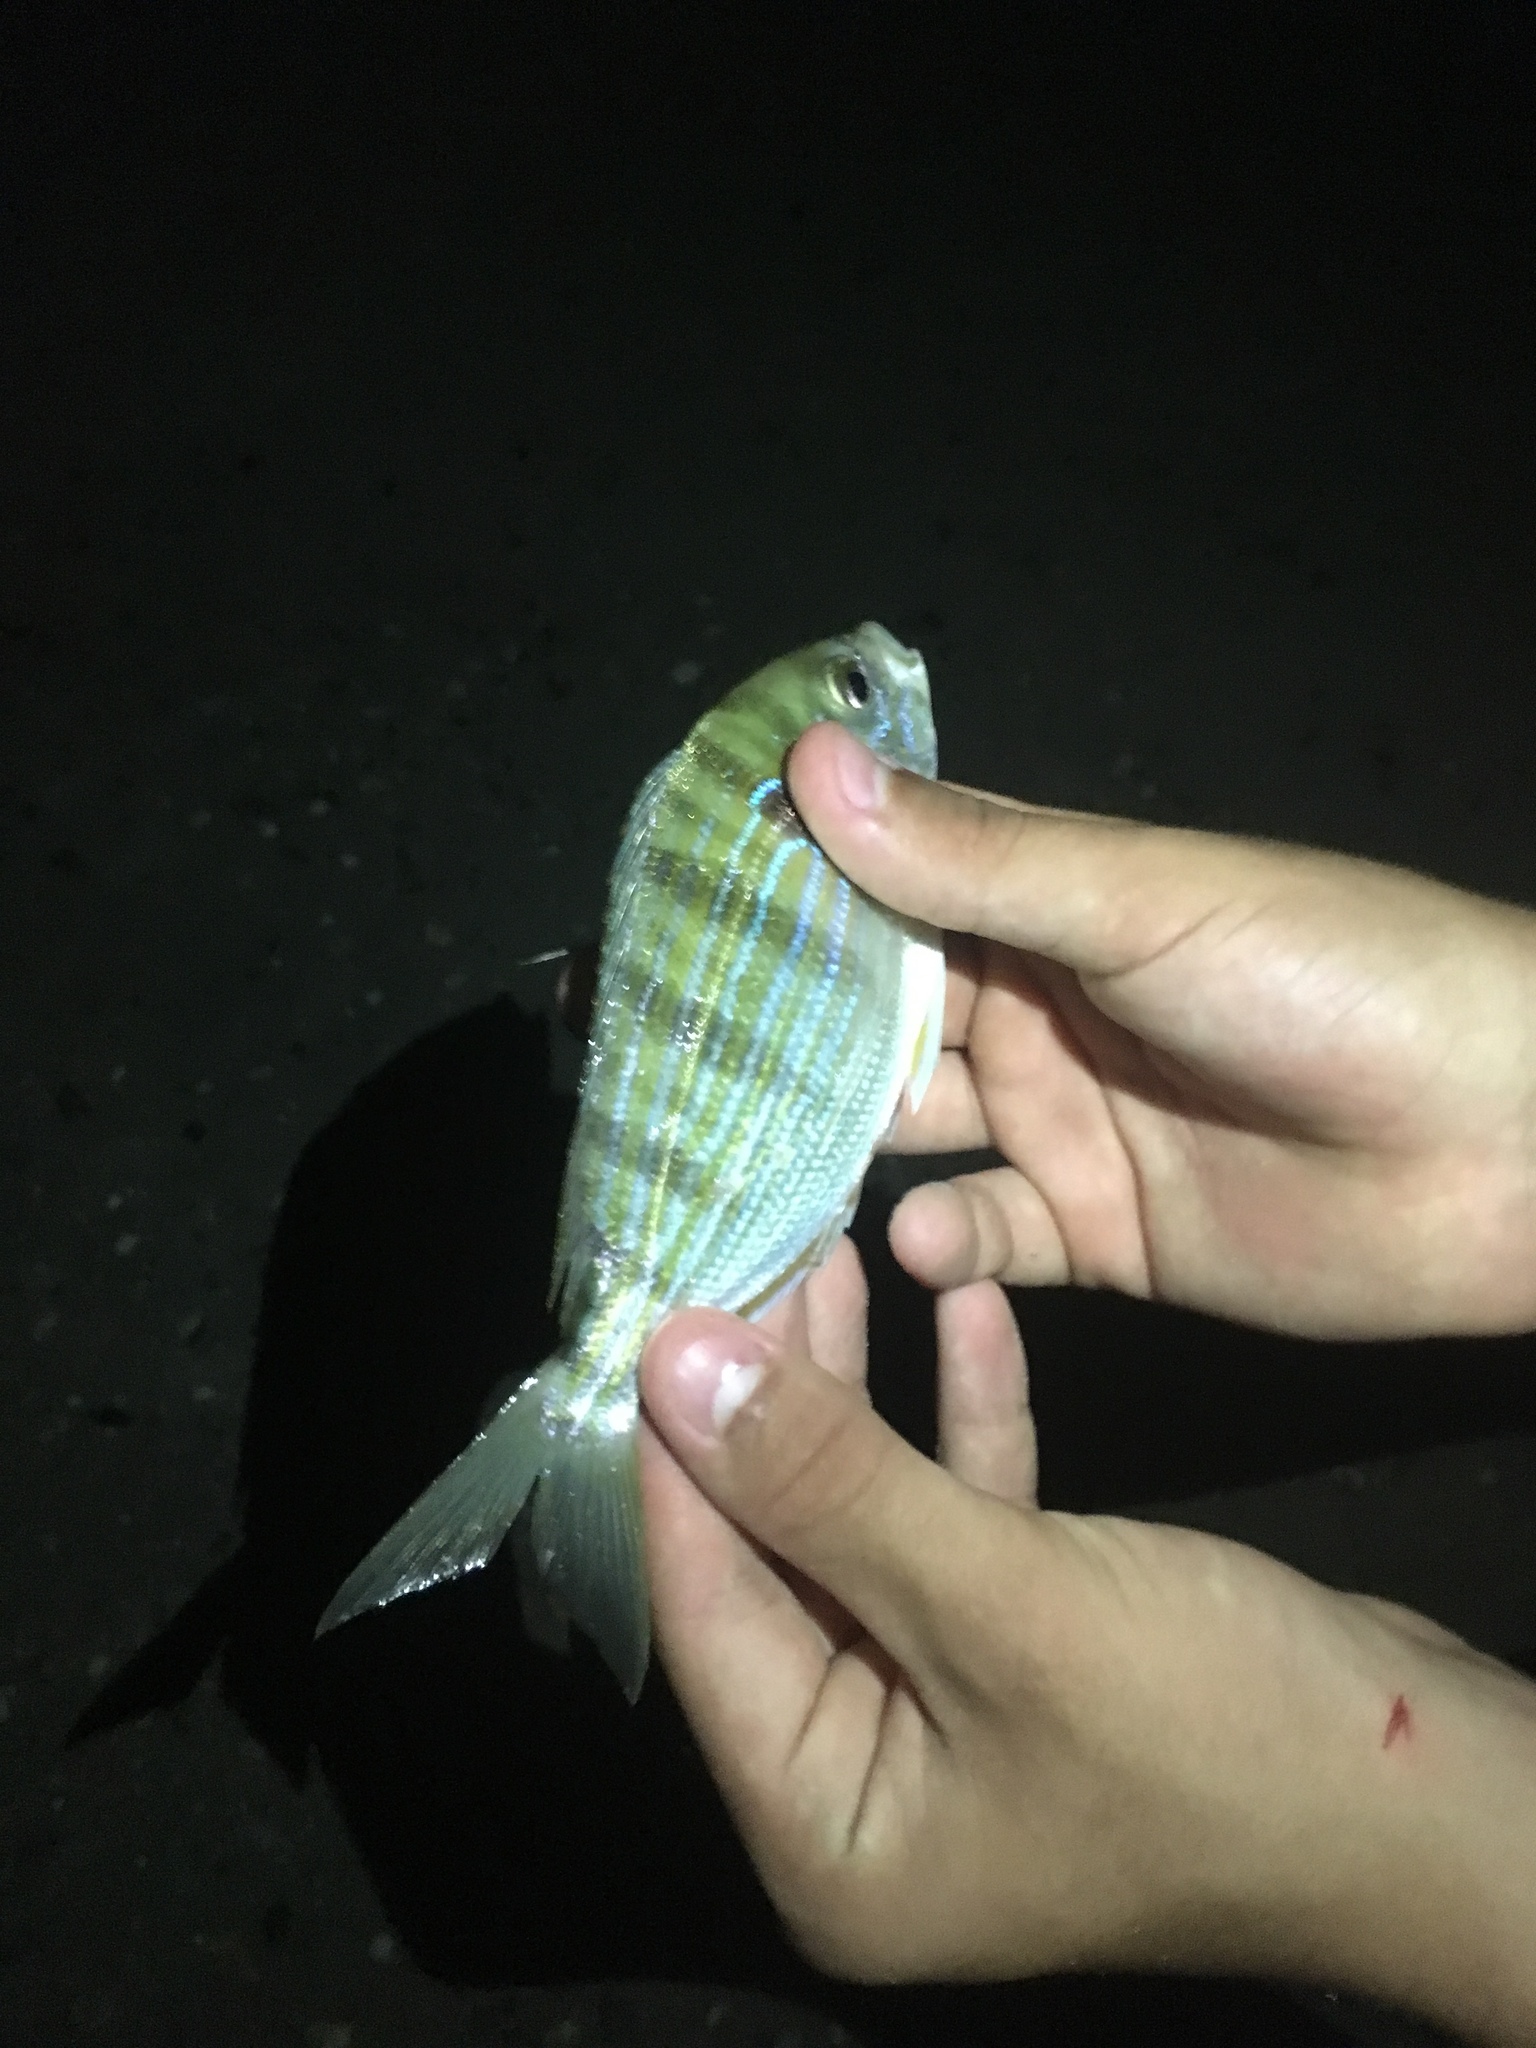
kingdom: Animalia
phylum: Chordata
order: Perciformes
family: Sparidae
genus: Lagodon
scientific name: Lagodon rhomboides
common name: Pinfish
